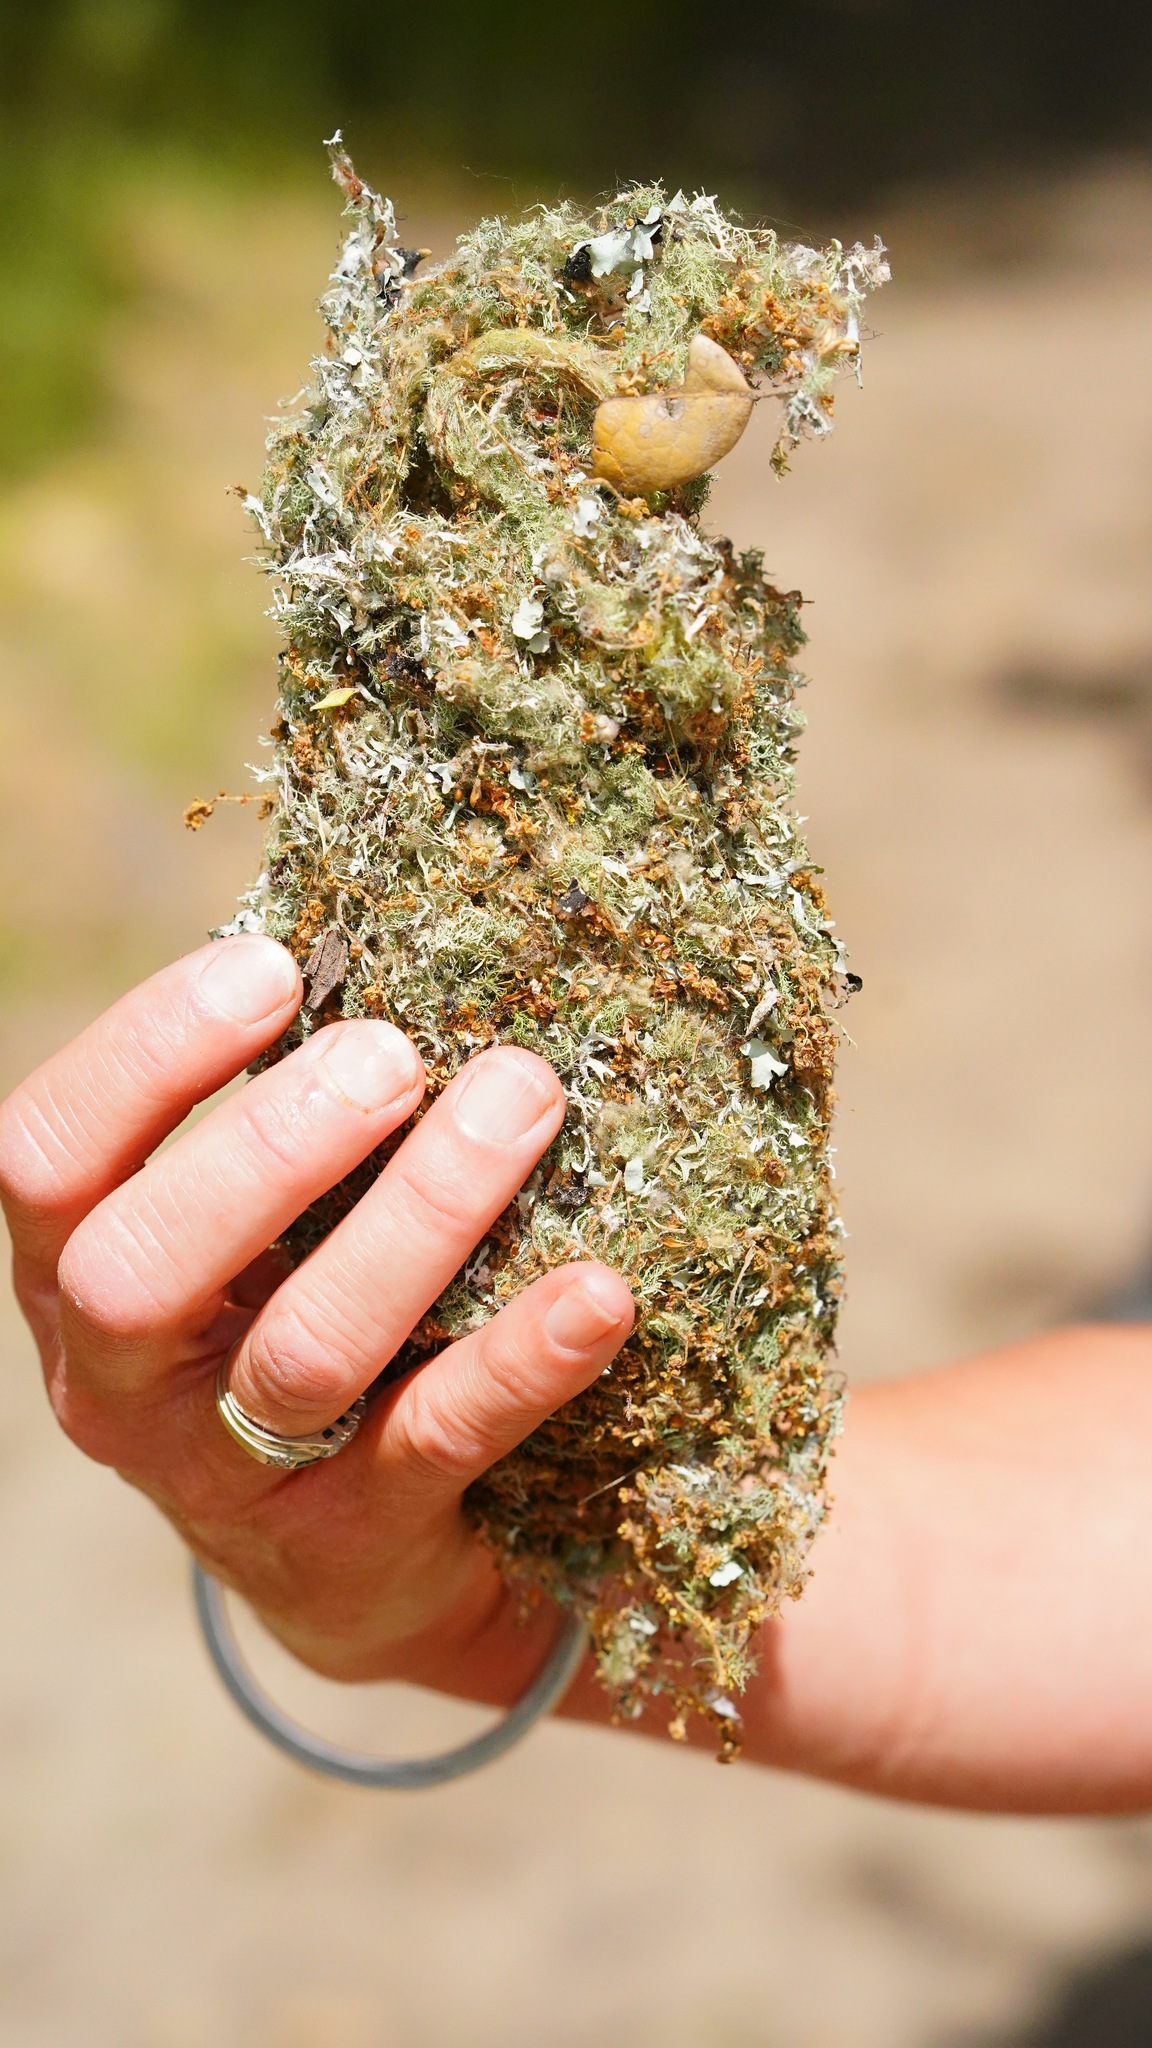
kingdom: Animalia
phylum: Chordata
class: Aves
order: Passeriformes
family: Aegithalidae
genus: Psaltriparus
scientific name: Psaltriparus minimus
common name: American bushtit
